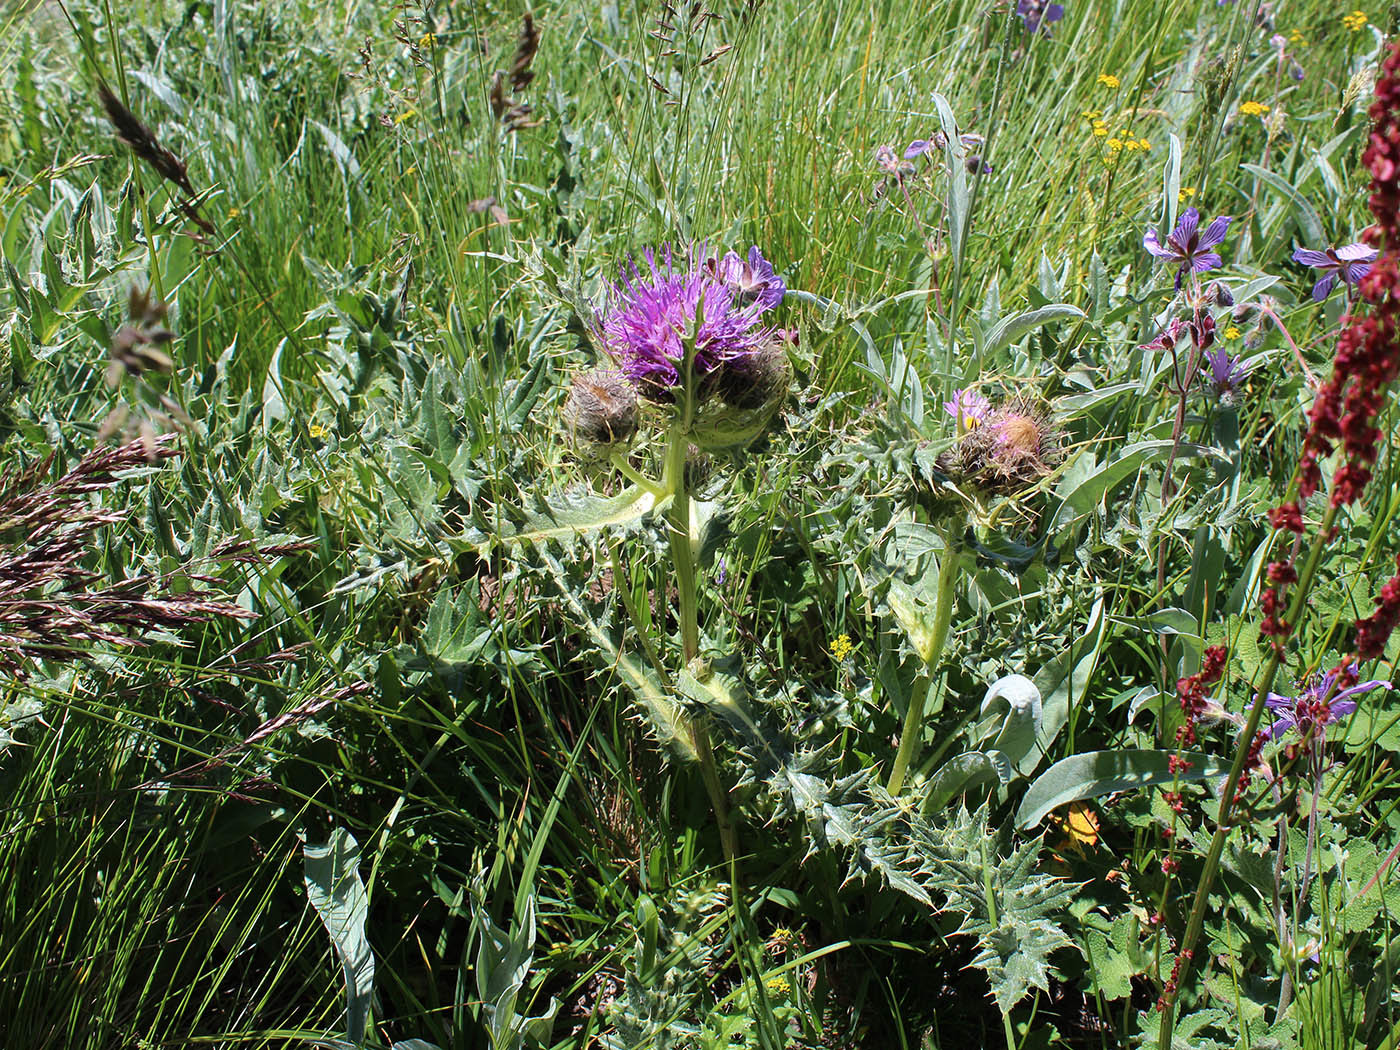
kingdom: Plantae
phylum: Tracheophyta
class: Magnoliopsida
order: Asterales
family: Asteraceae
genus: Lophiolepis
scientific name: Lophiolepis horrida
